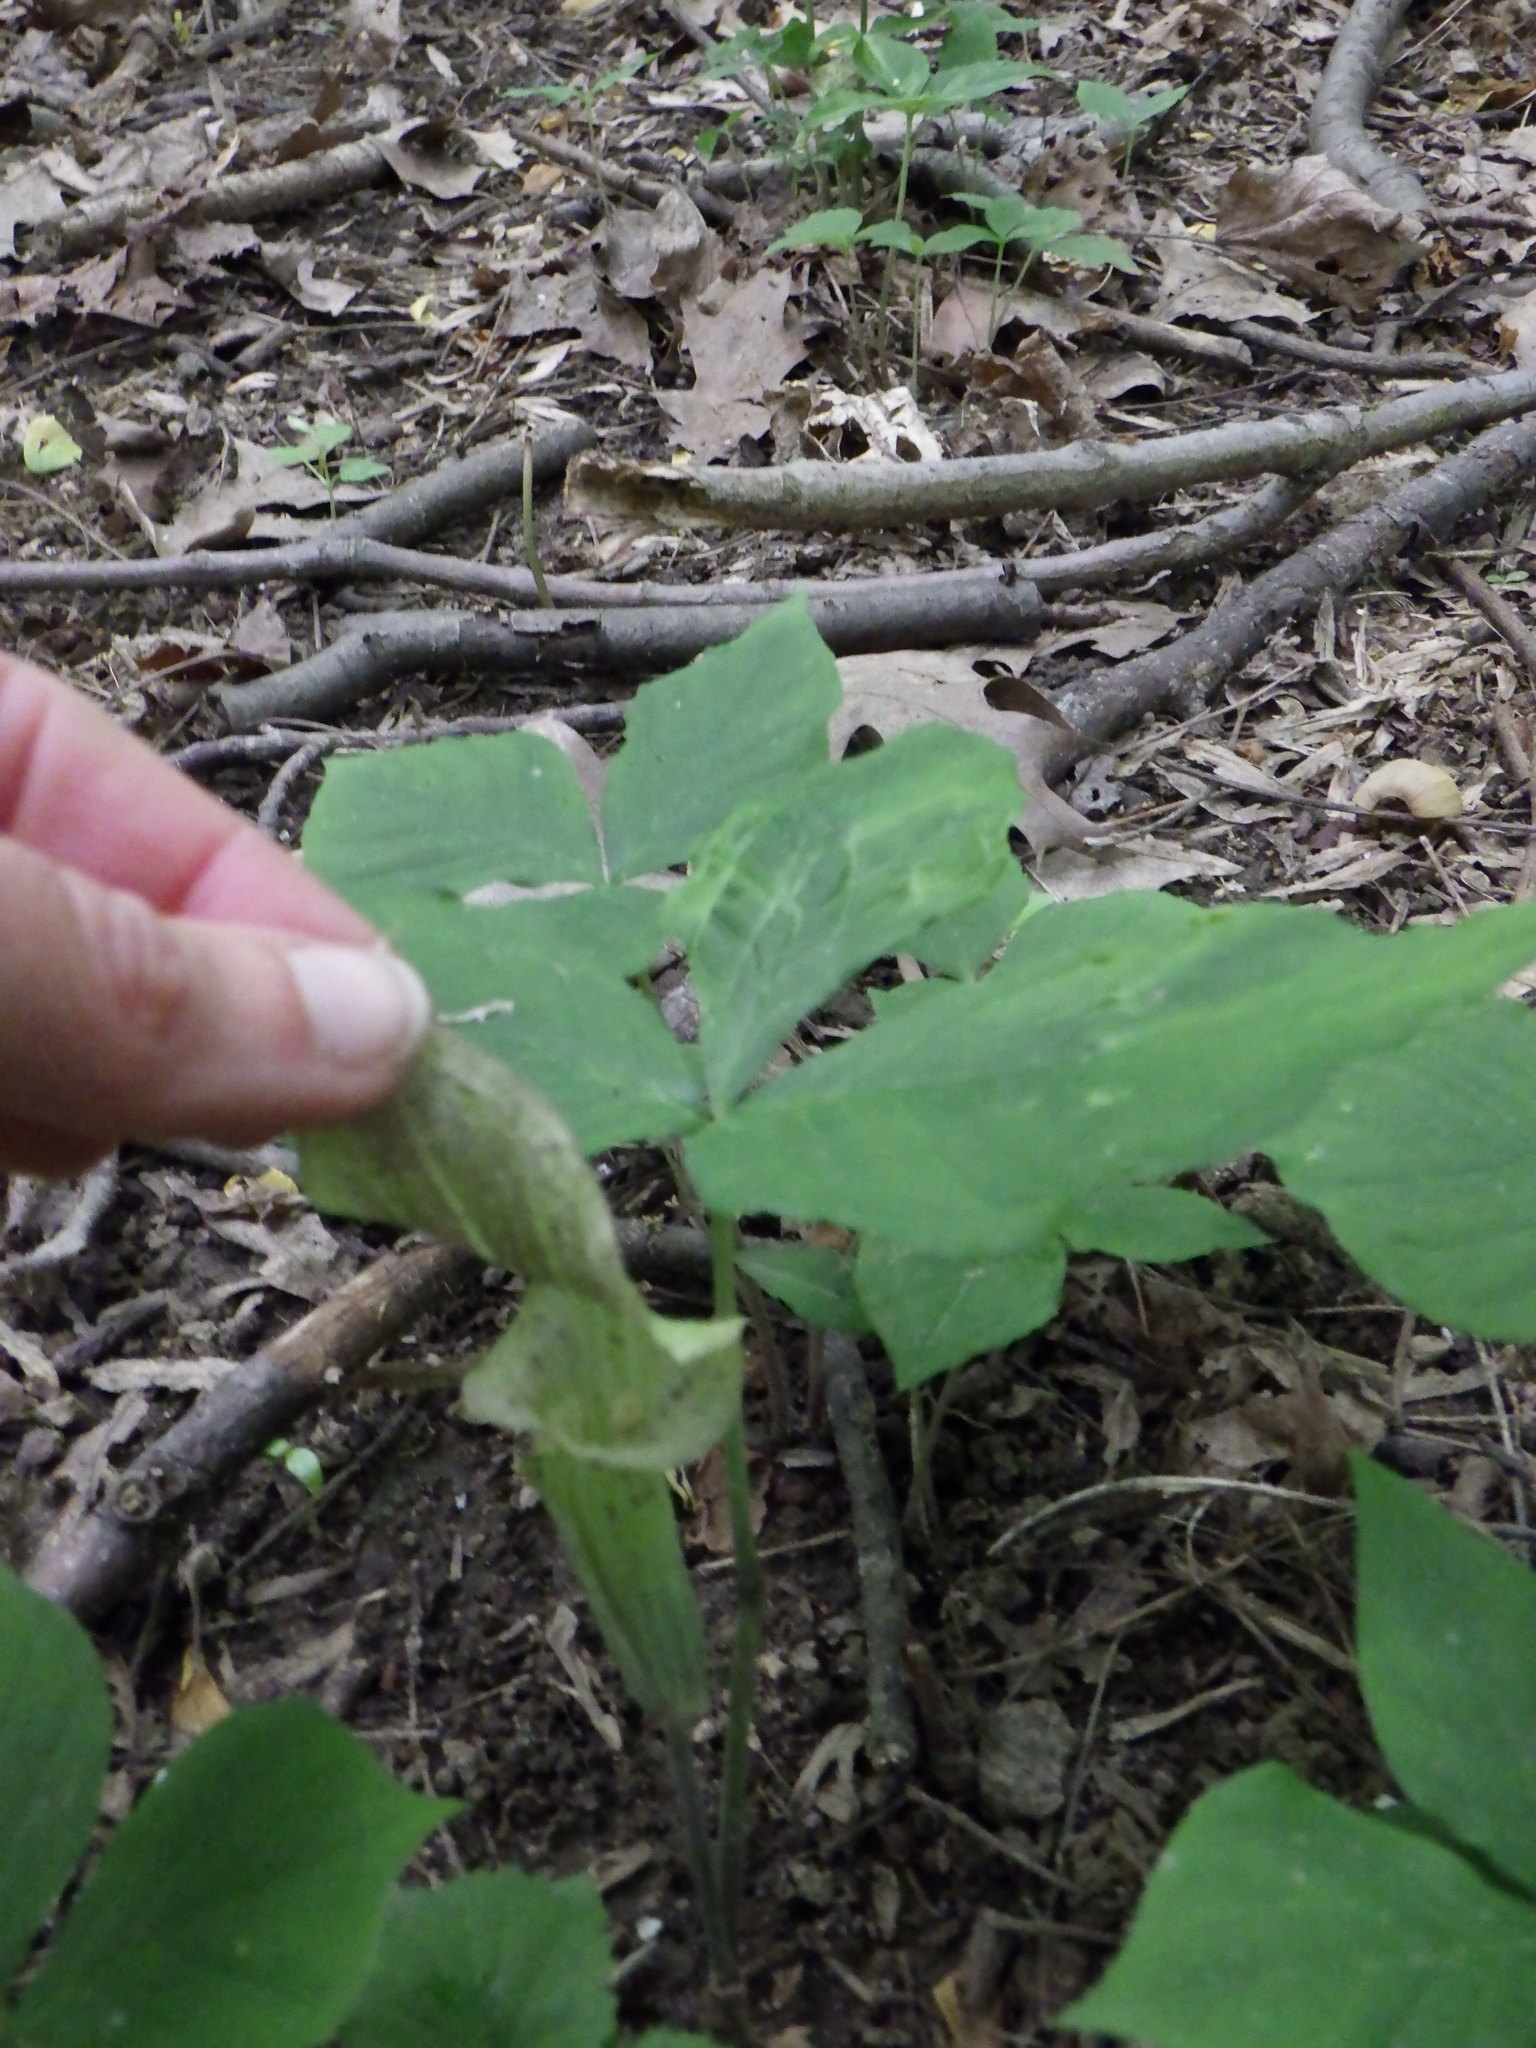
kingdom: Plantae
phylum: Tracheophyta
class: Liliopsida
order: Alismatales
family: Araceae
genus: Arisaema
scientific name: Arisaema triphyllum
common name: Jack-in-the-pulpit
